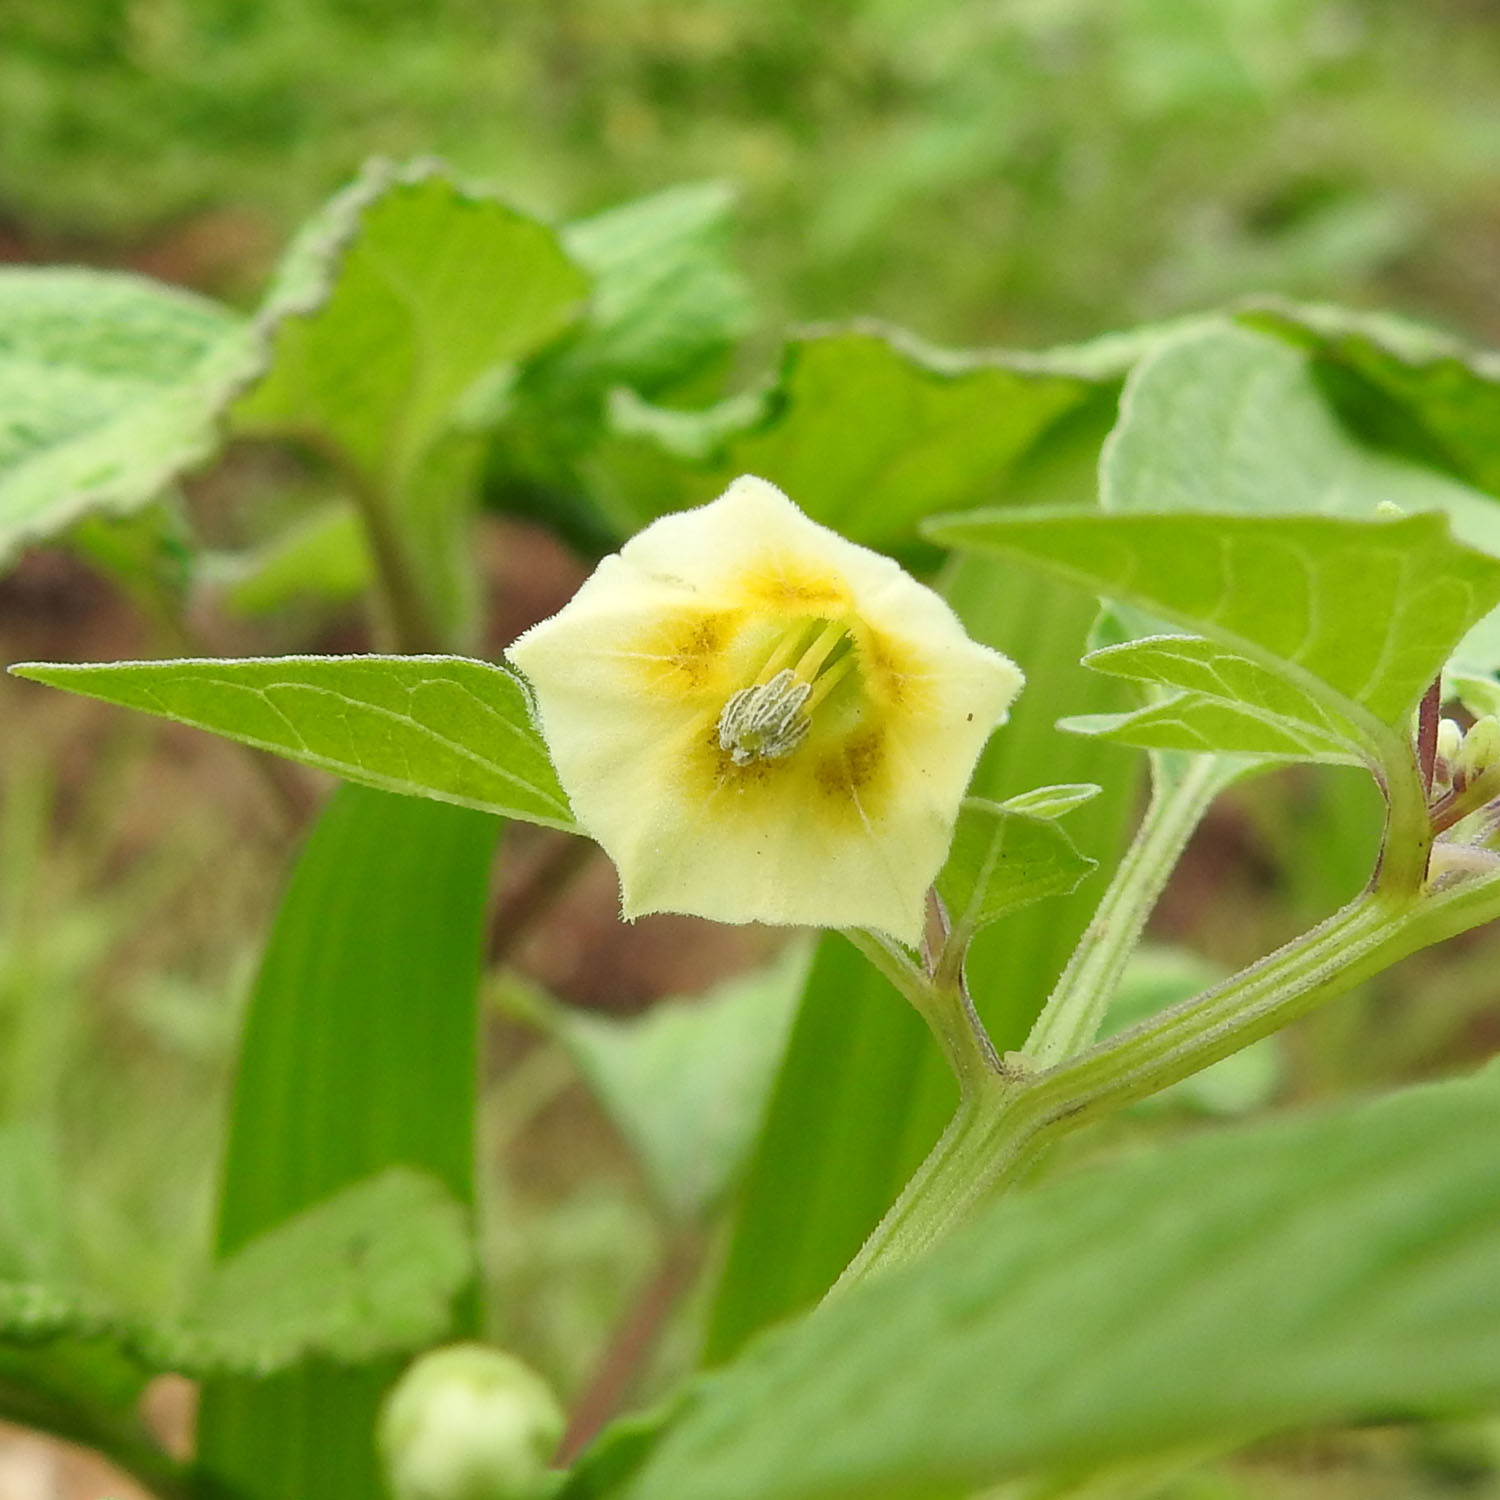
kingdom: Plantae
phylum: Tracheophyta
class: Magnoliopsida
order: Solanales
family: Solanaceae
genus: Physalis
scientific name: Physalis angulata
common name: Angular winter-cherry
